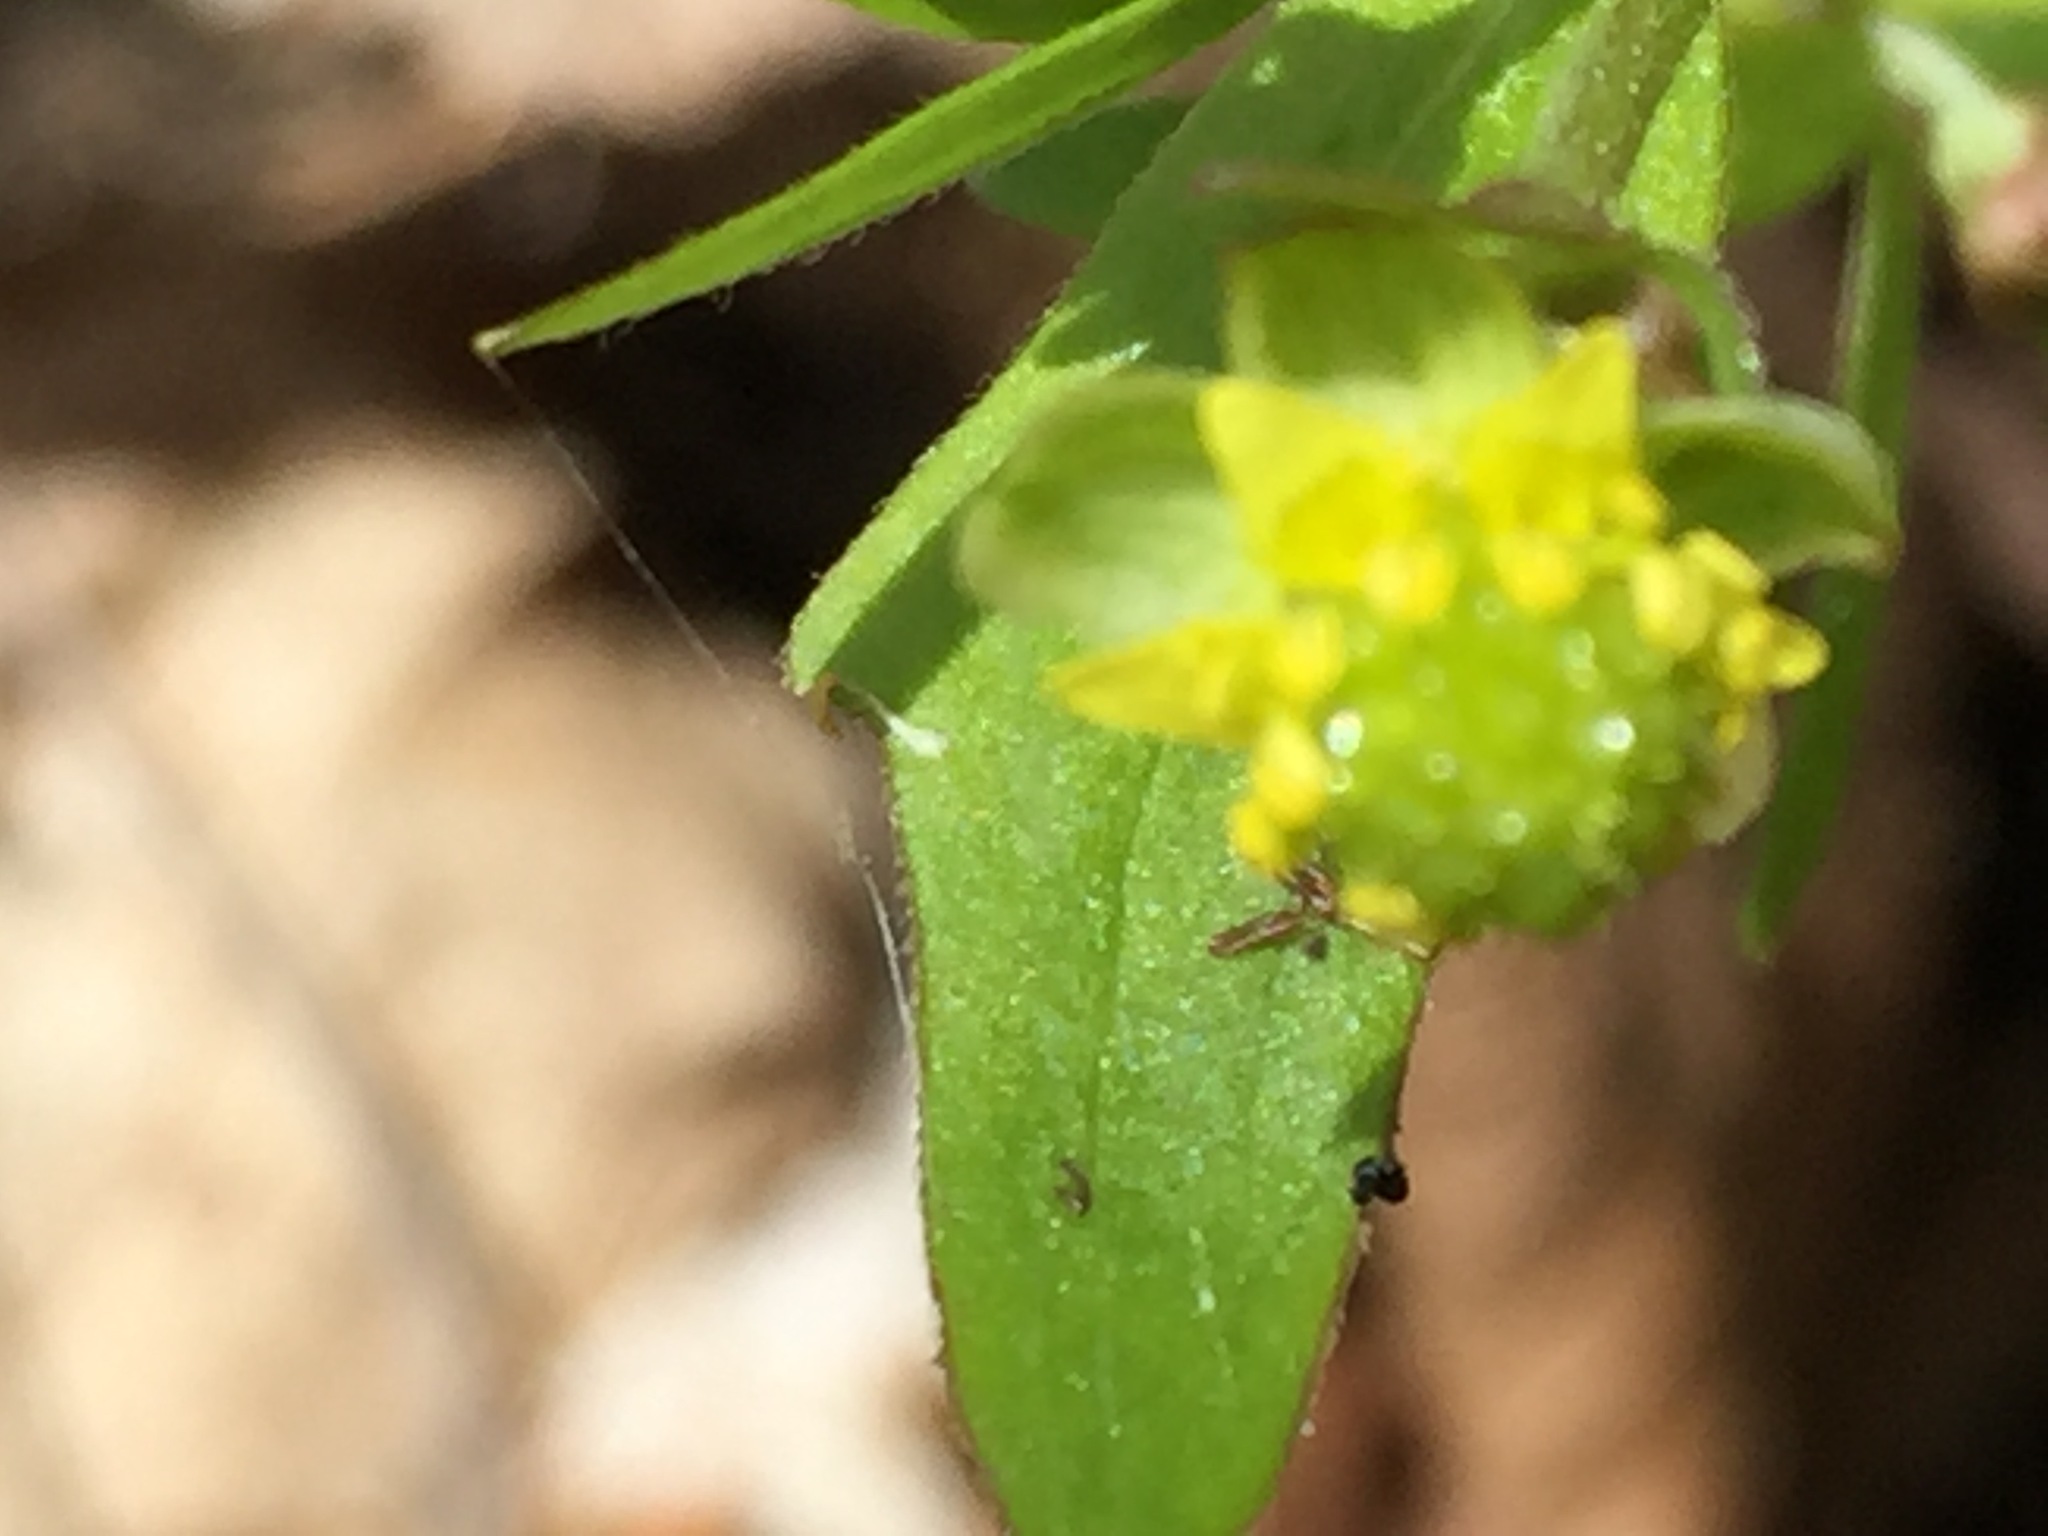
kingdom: Plantae
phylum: Tracheophyta
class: Magnoliopsida
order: Ranunculales
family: Ranunculaceae
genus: Ranunculus
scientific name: Ranunculus abortivus
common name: Early wood buttercup
